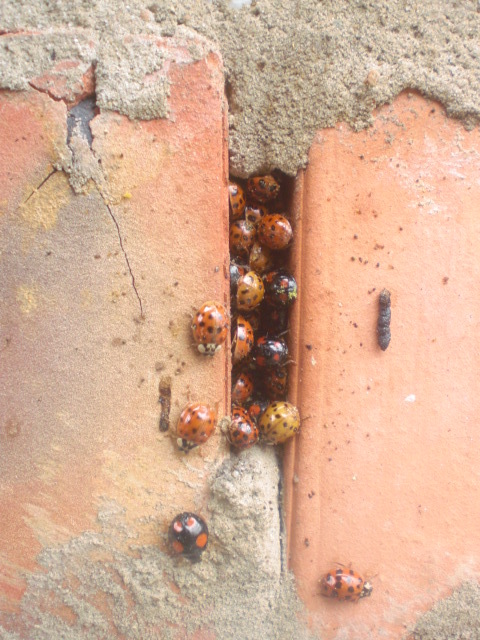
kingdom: Animalia
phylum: Arthropoda
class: Insecta
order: Coleoptera
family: Coccinellidae
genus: Harmonia
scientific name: Harmonia axyridis
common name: Harlequin ladybird
